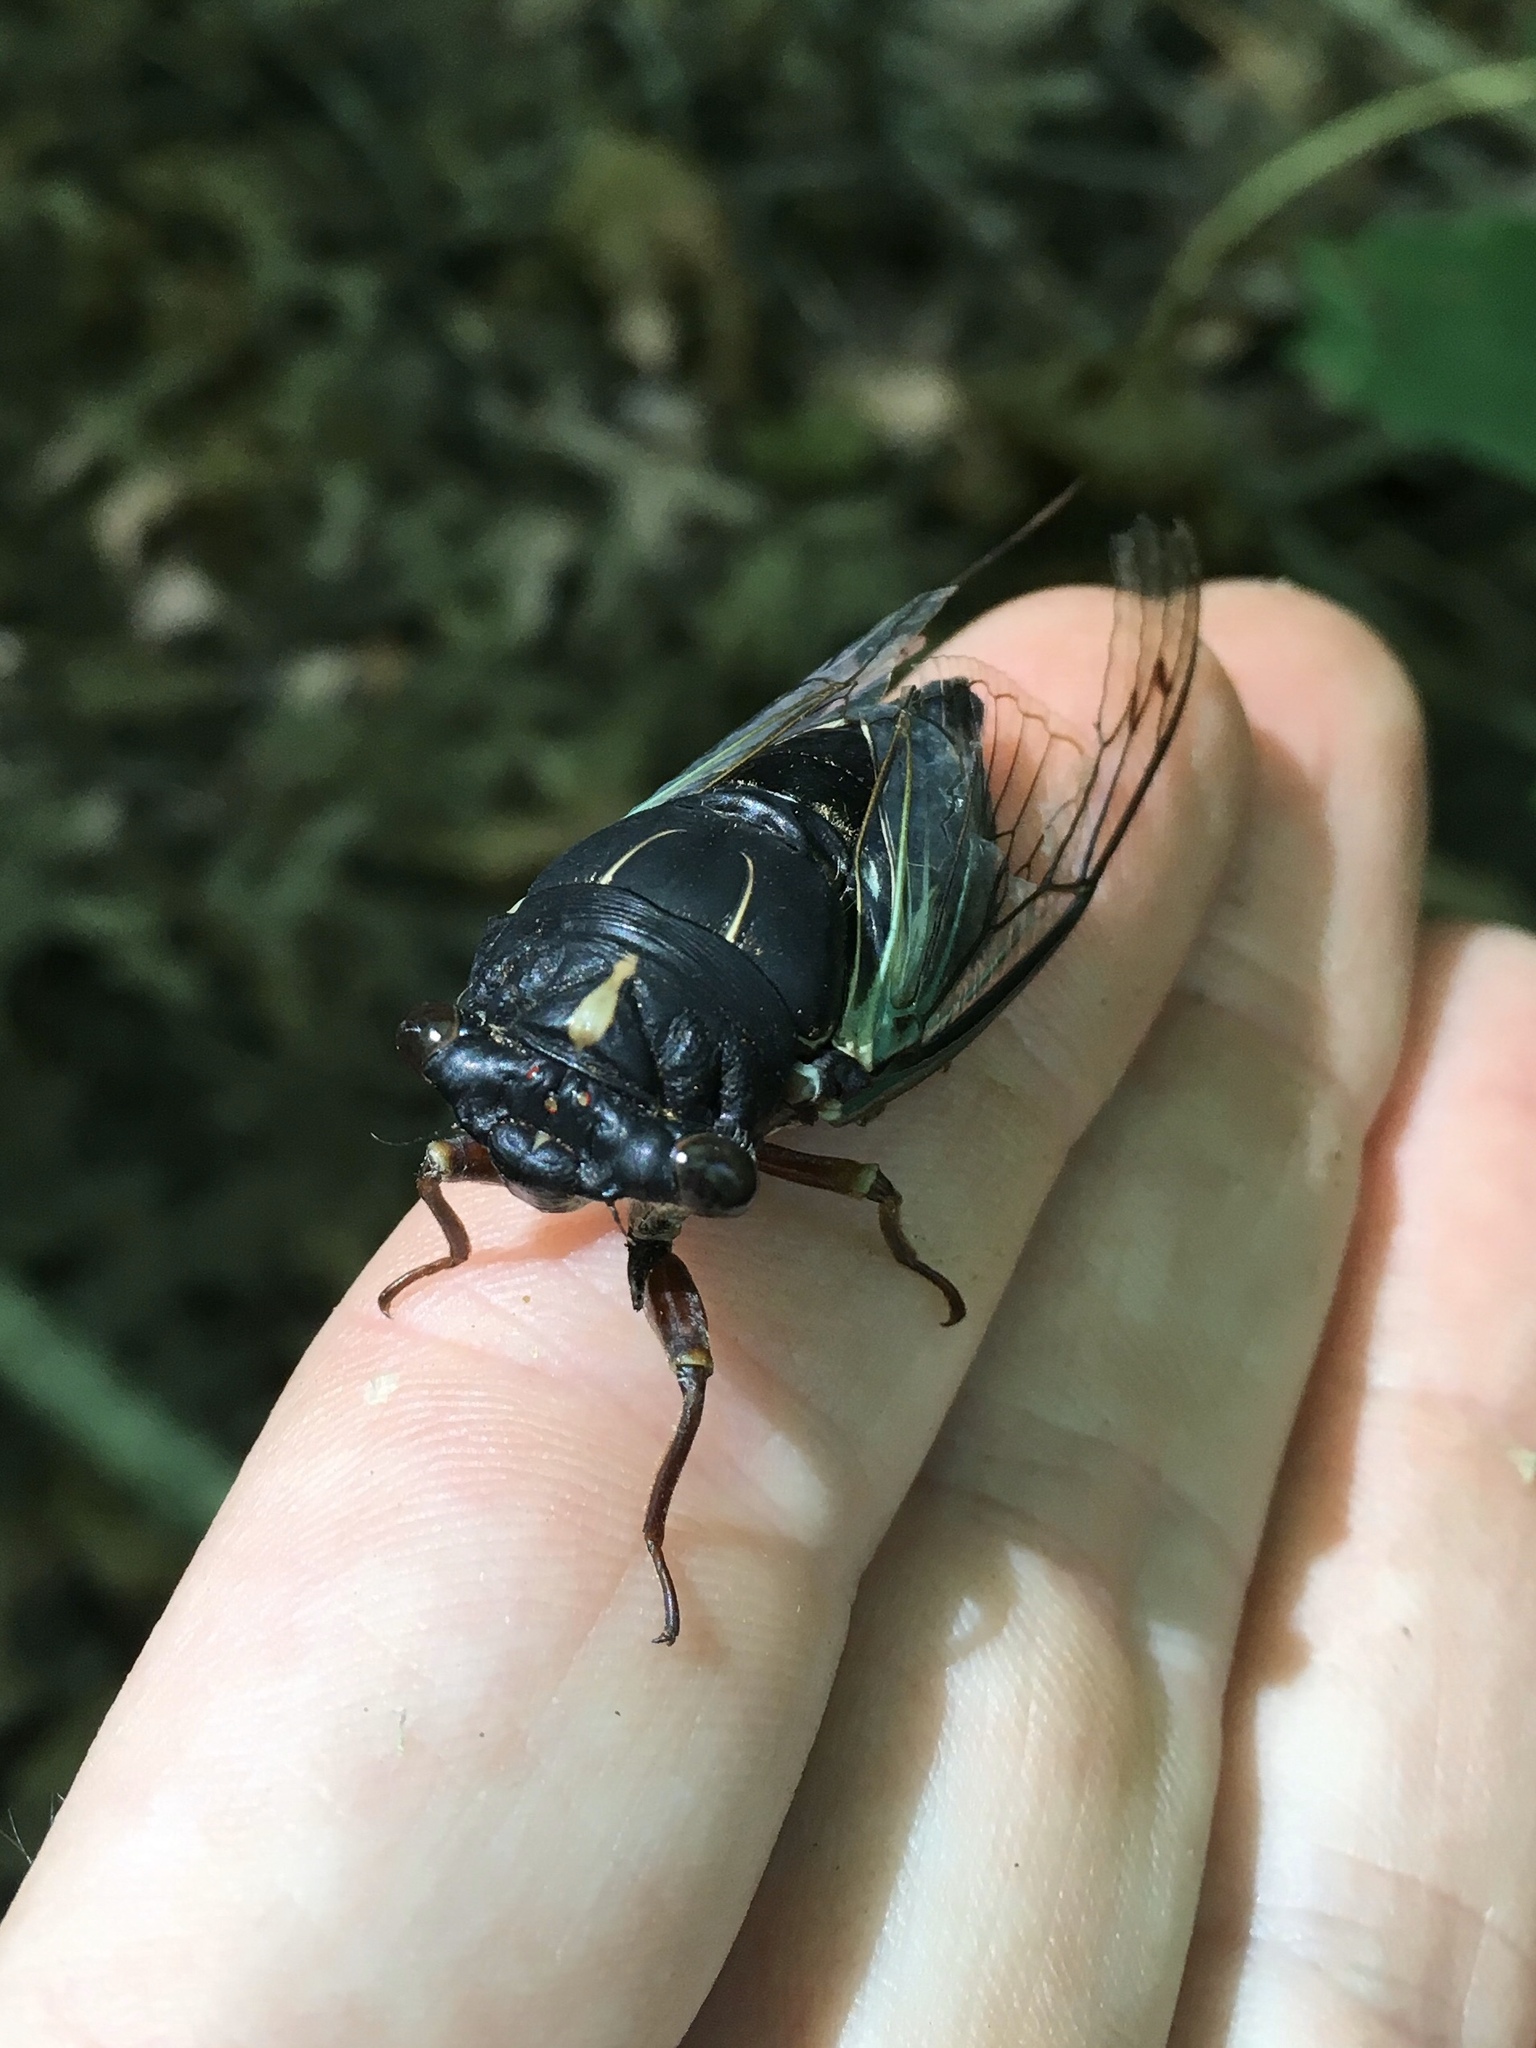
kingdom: Animalia
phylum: Arthropoda
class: Insecta
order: Hemiptera
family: Cicadidae
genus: Neotibicen
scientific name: Neotibicen lyricen
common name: Lyric cicada
